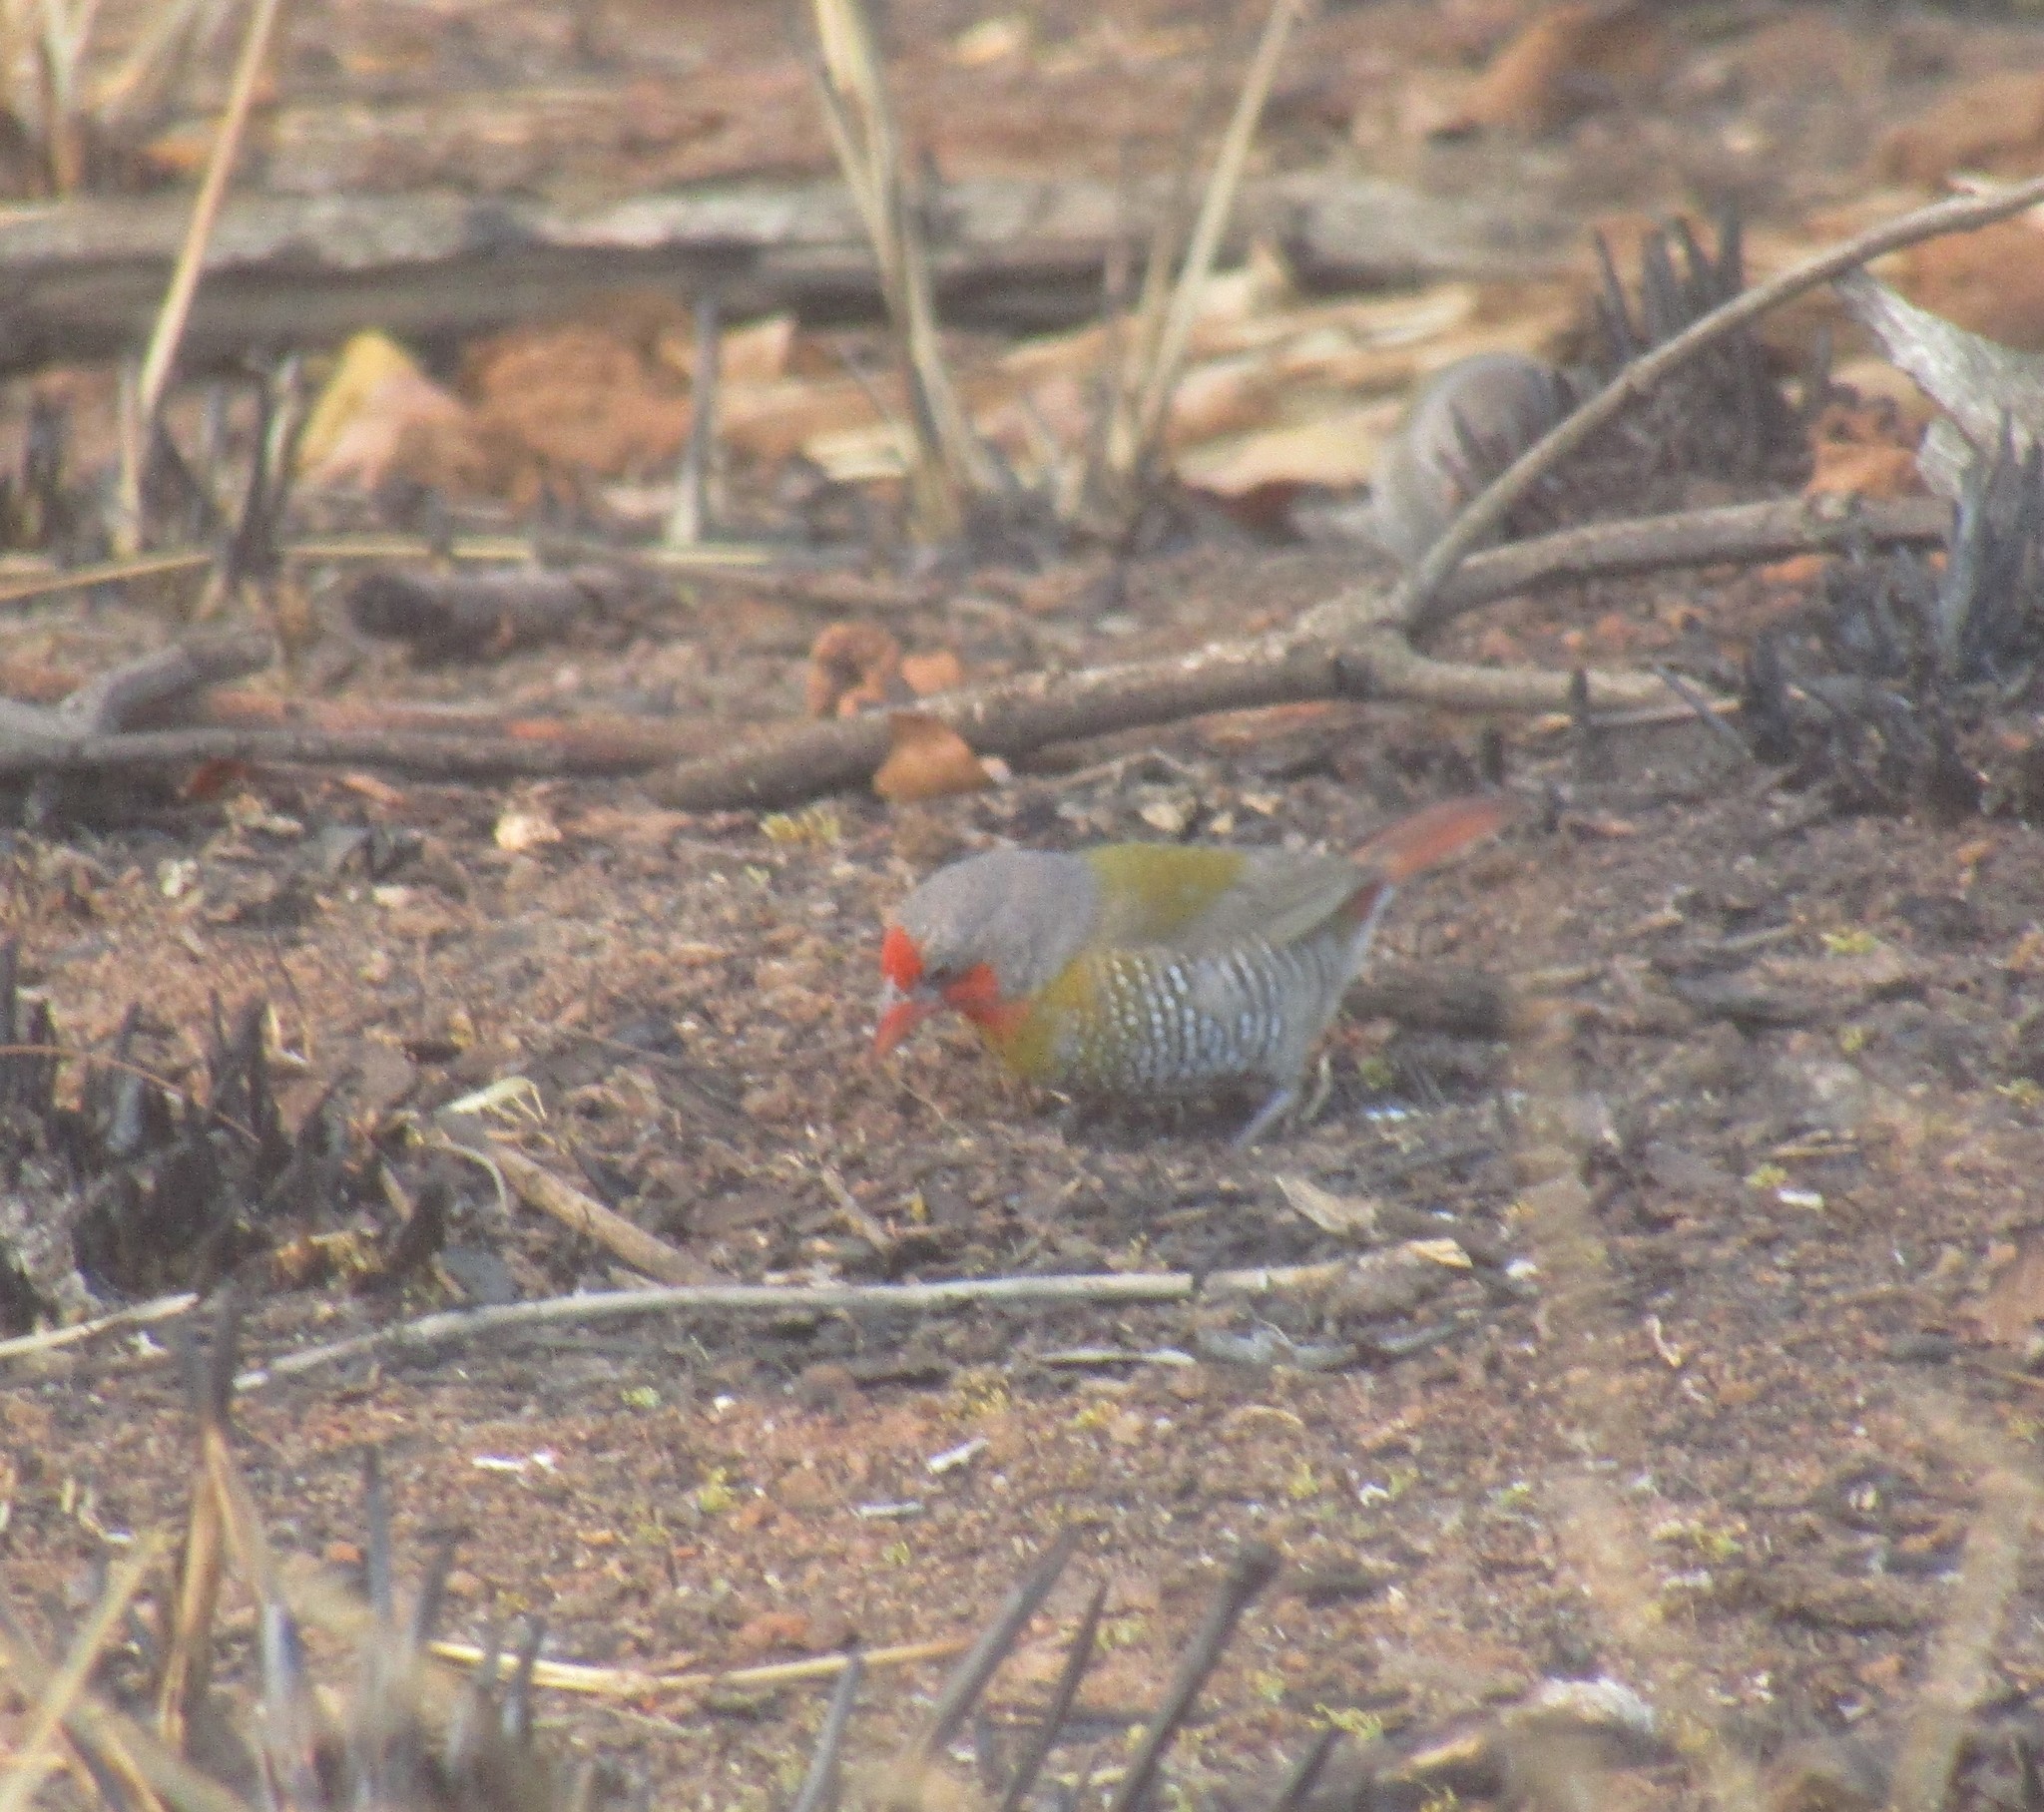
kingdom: Animalia
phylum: Chordata
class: Aves
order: Passeriformes
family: Estrildidae
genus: Pytilia
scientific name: Pytilia melba
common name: Green-winged pytilia
